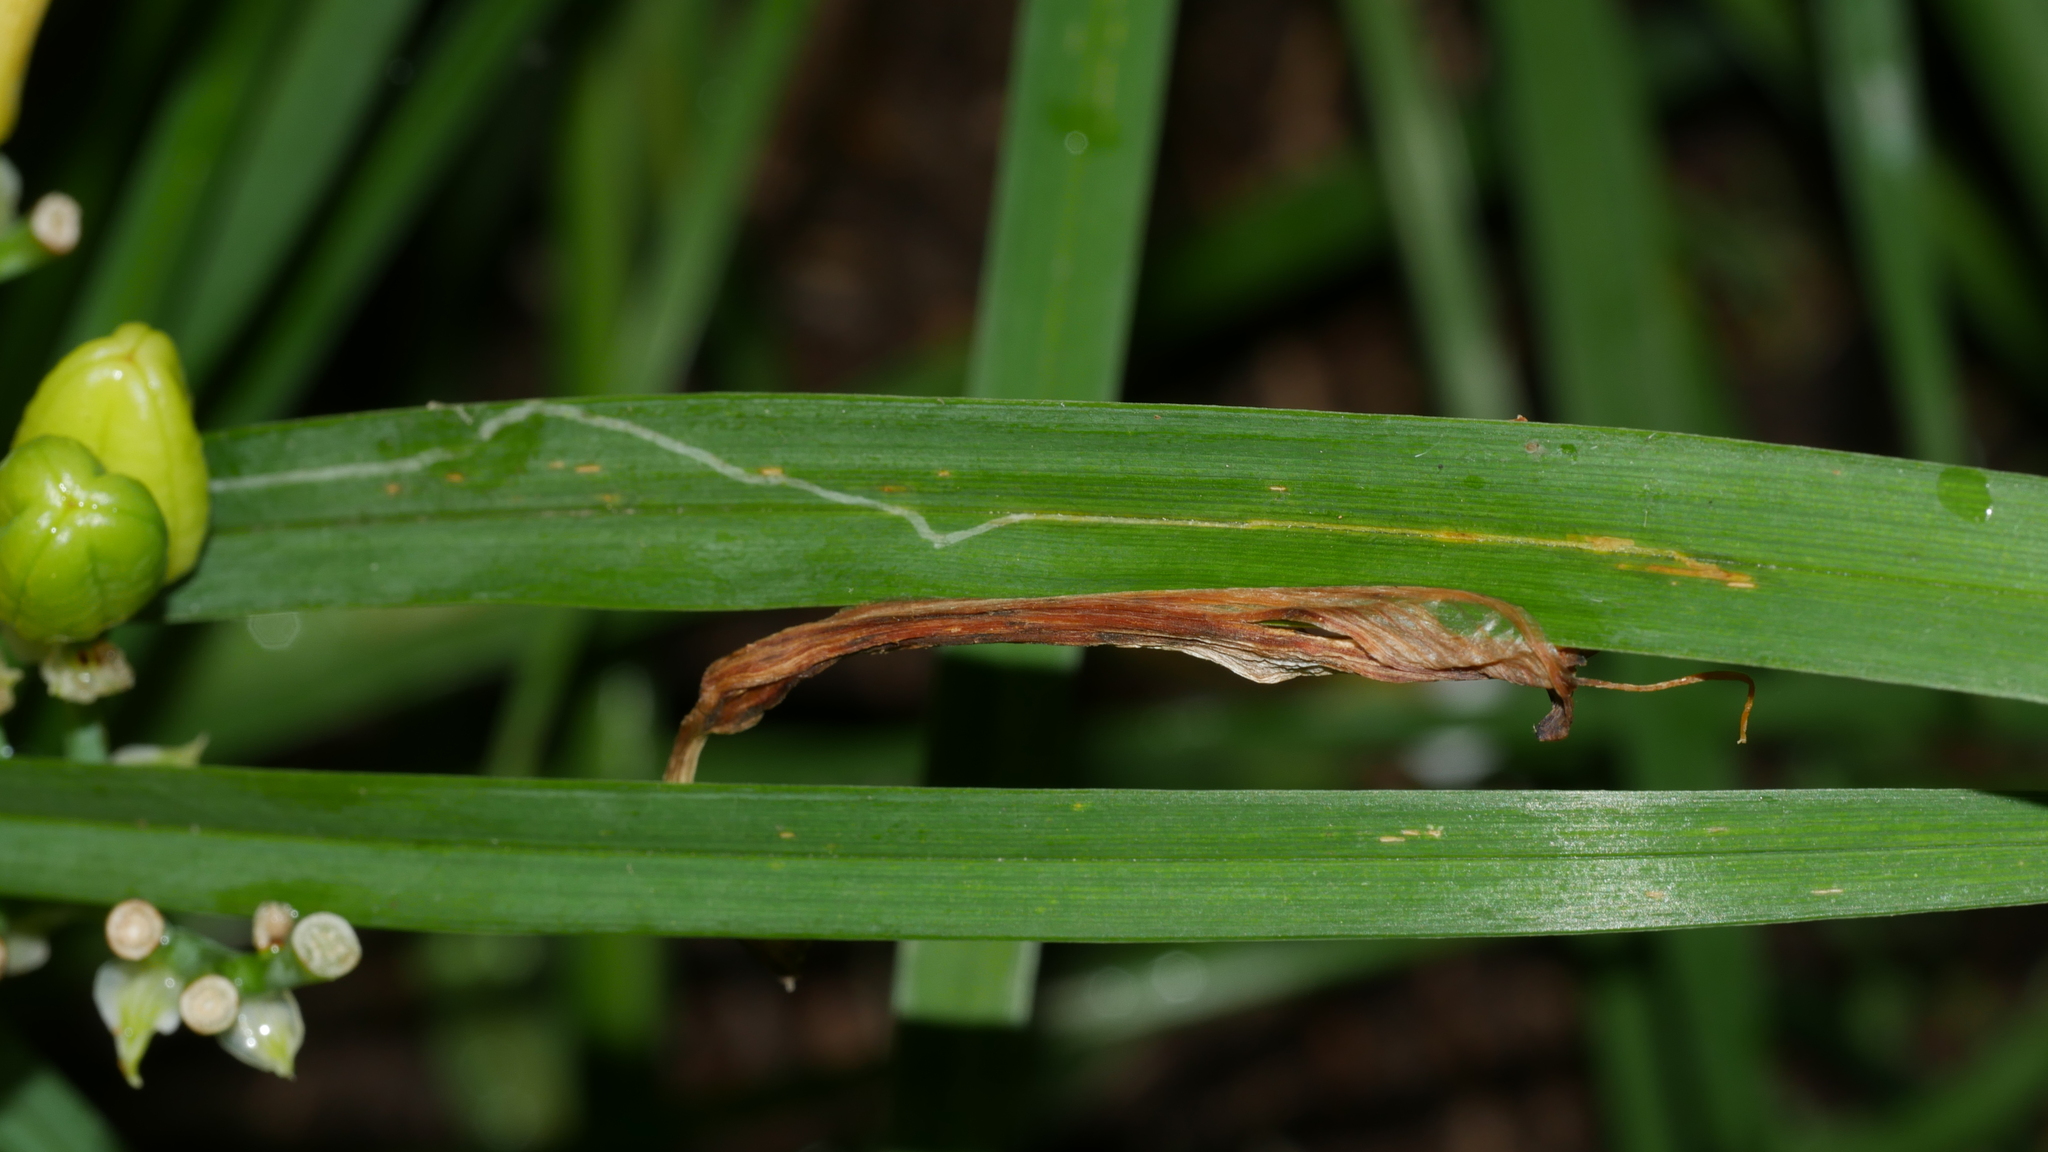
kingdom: Animalia
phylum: Arthropoda
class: Insecta
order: Diptera
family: Agromyzidae
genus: Ophiomyia
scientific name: Ophiomyia kwansonis
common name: Daylily leafminer
